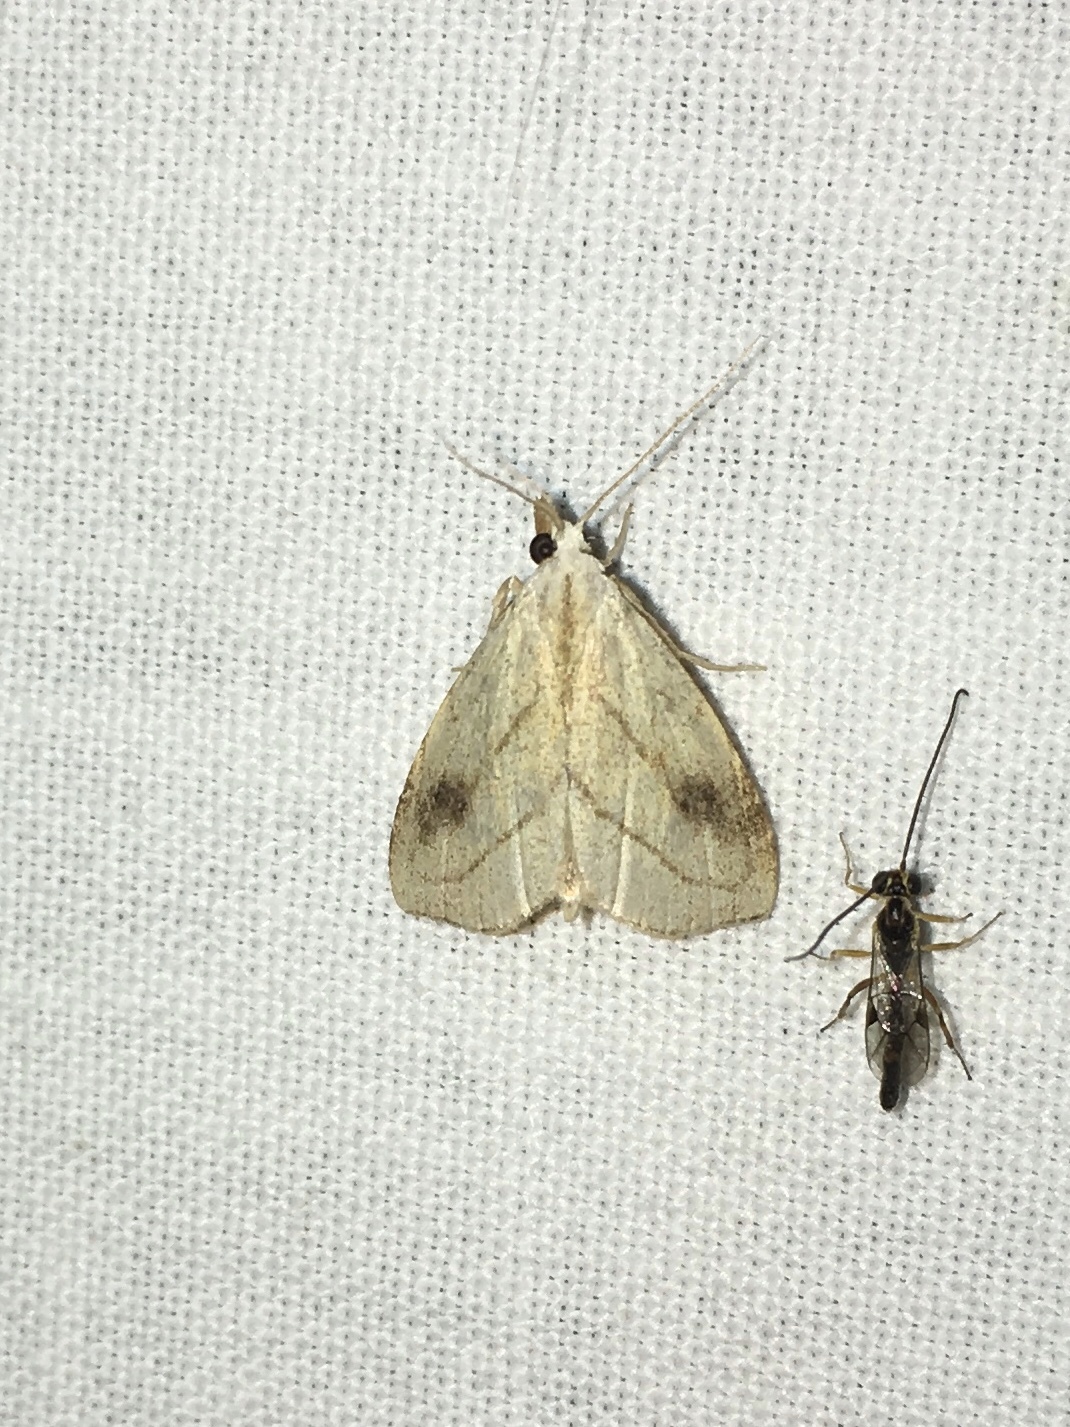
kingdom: Animalia
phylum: Arthropoda
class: Insecta
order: Lepidoptera
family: Erebidae
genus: Rivula
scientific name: Rivula propinqualis
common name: Spotted grass moth
